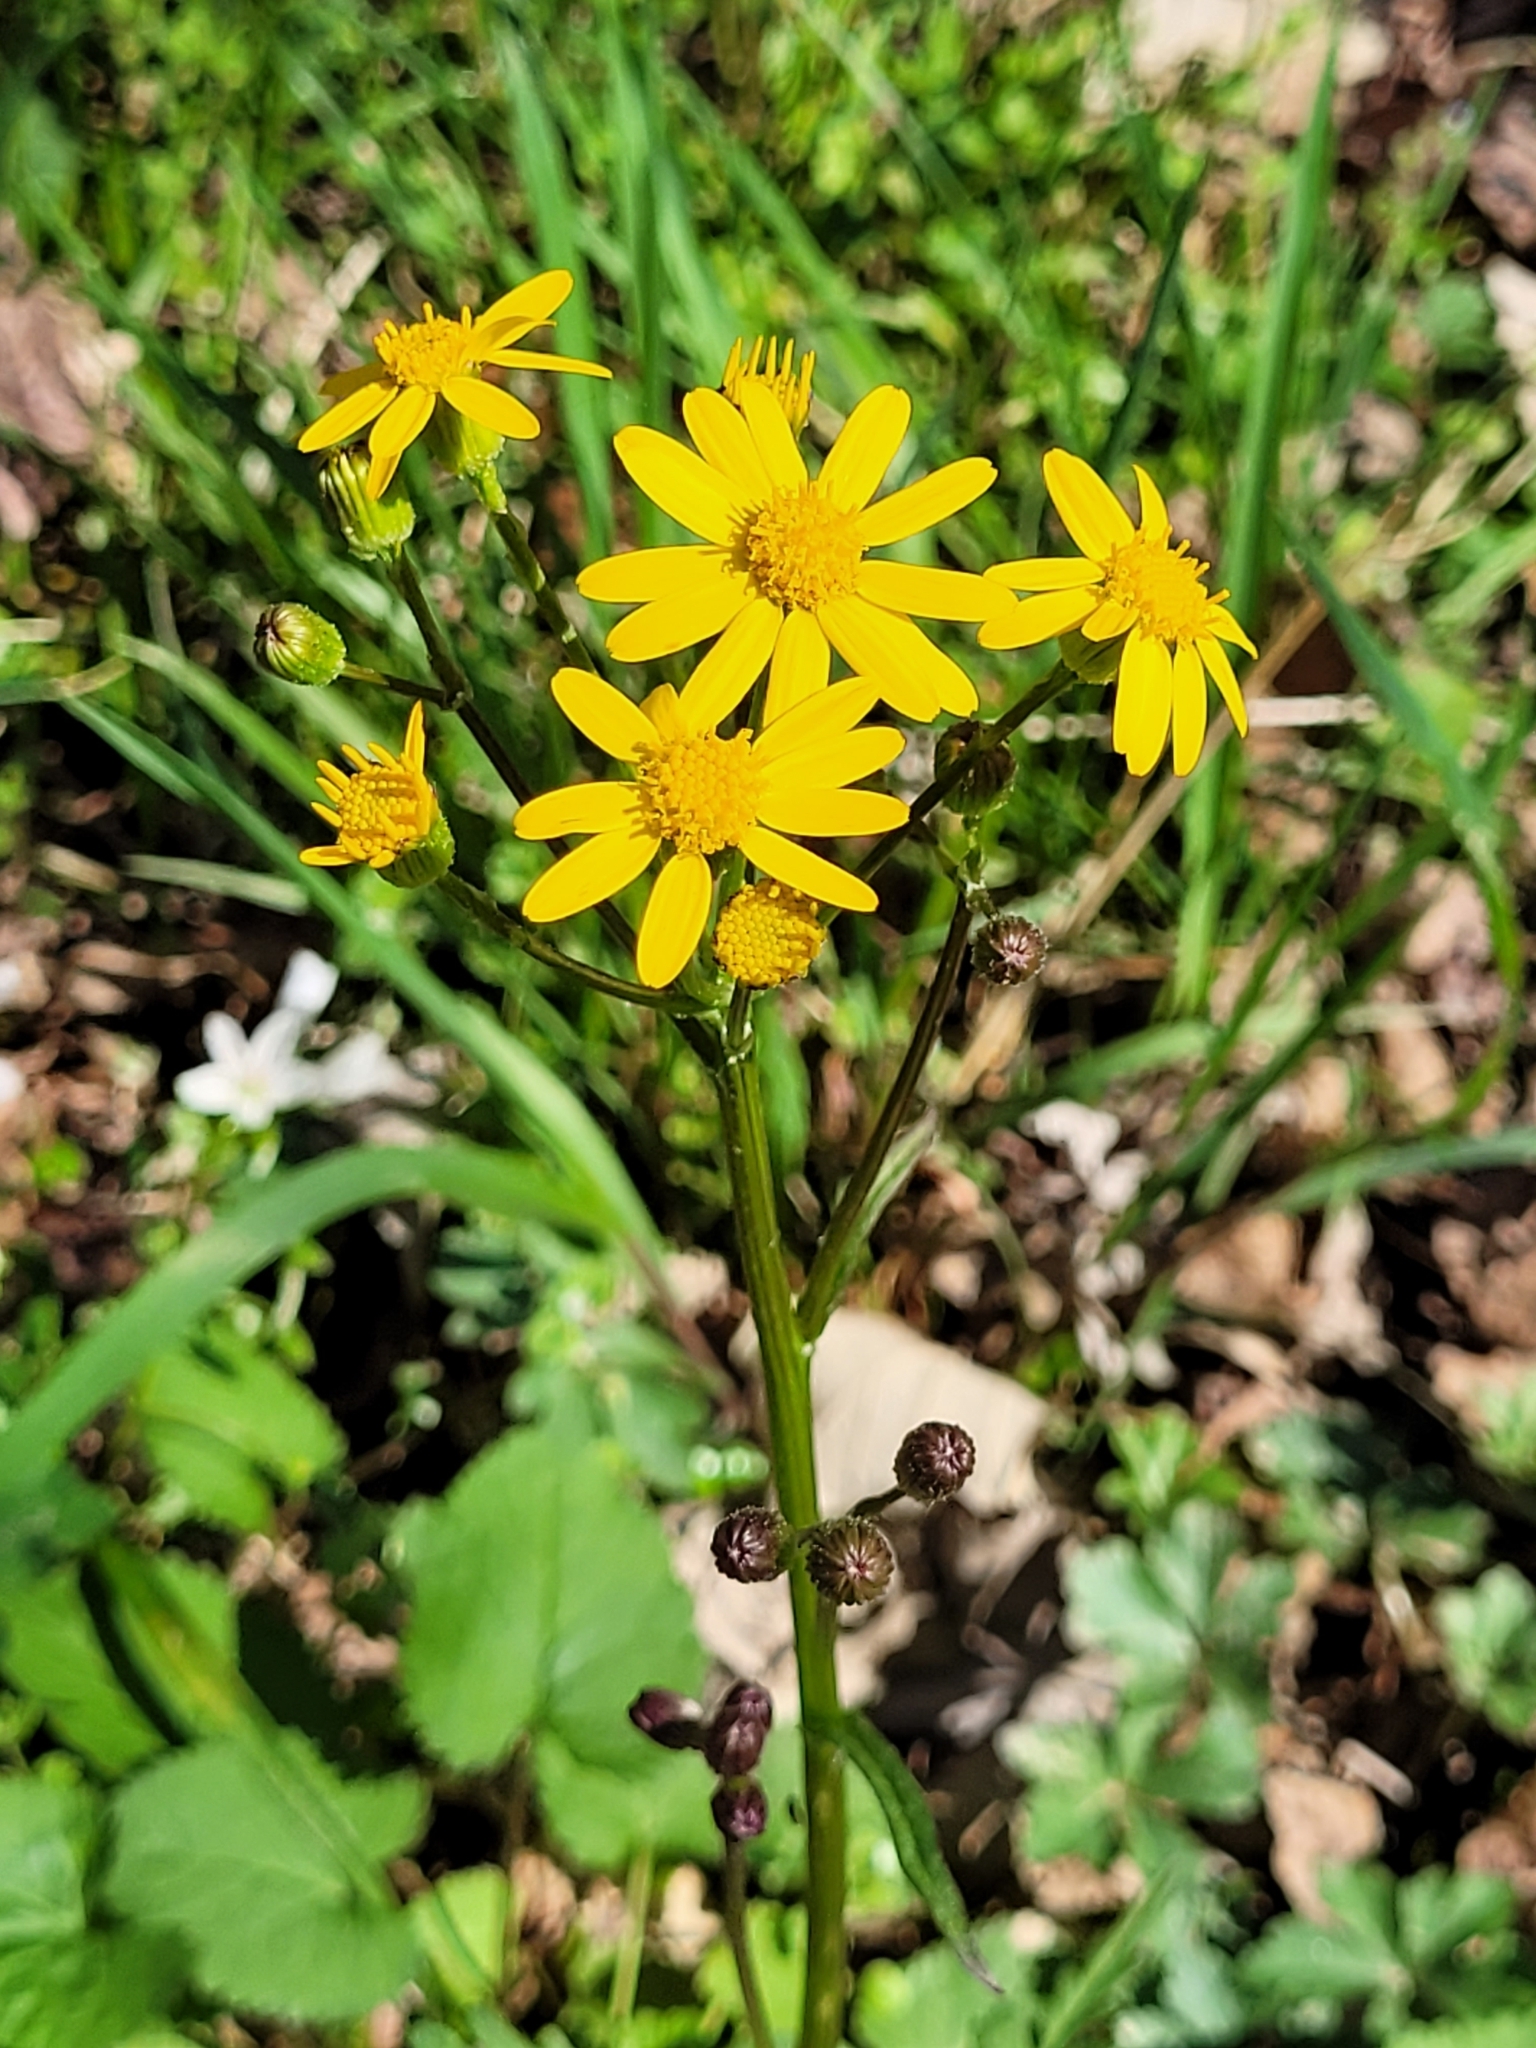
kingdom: Plantae
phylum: Tracheophyta
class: Magnoliopsida
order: Asterales
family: Asteraceae
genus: Packera
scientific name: Packera aurea
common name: Golden groundsel
